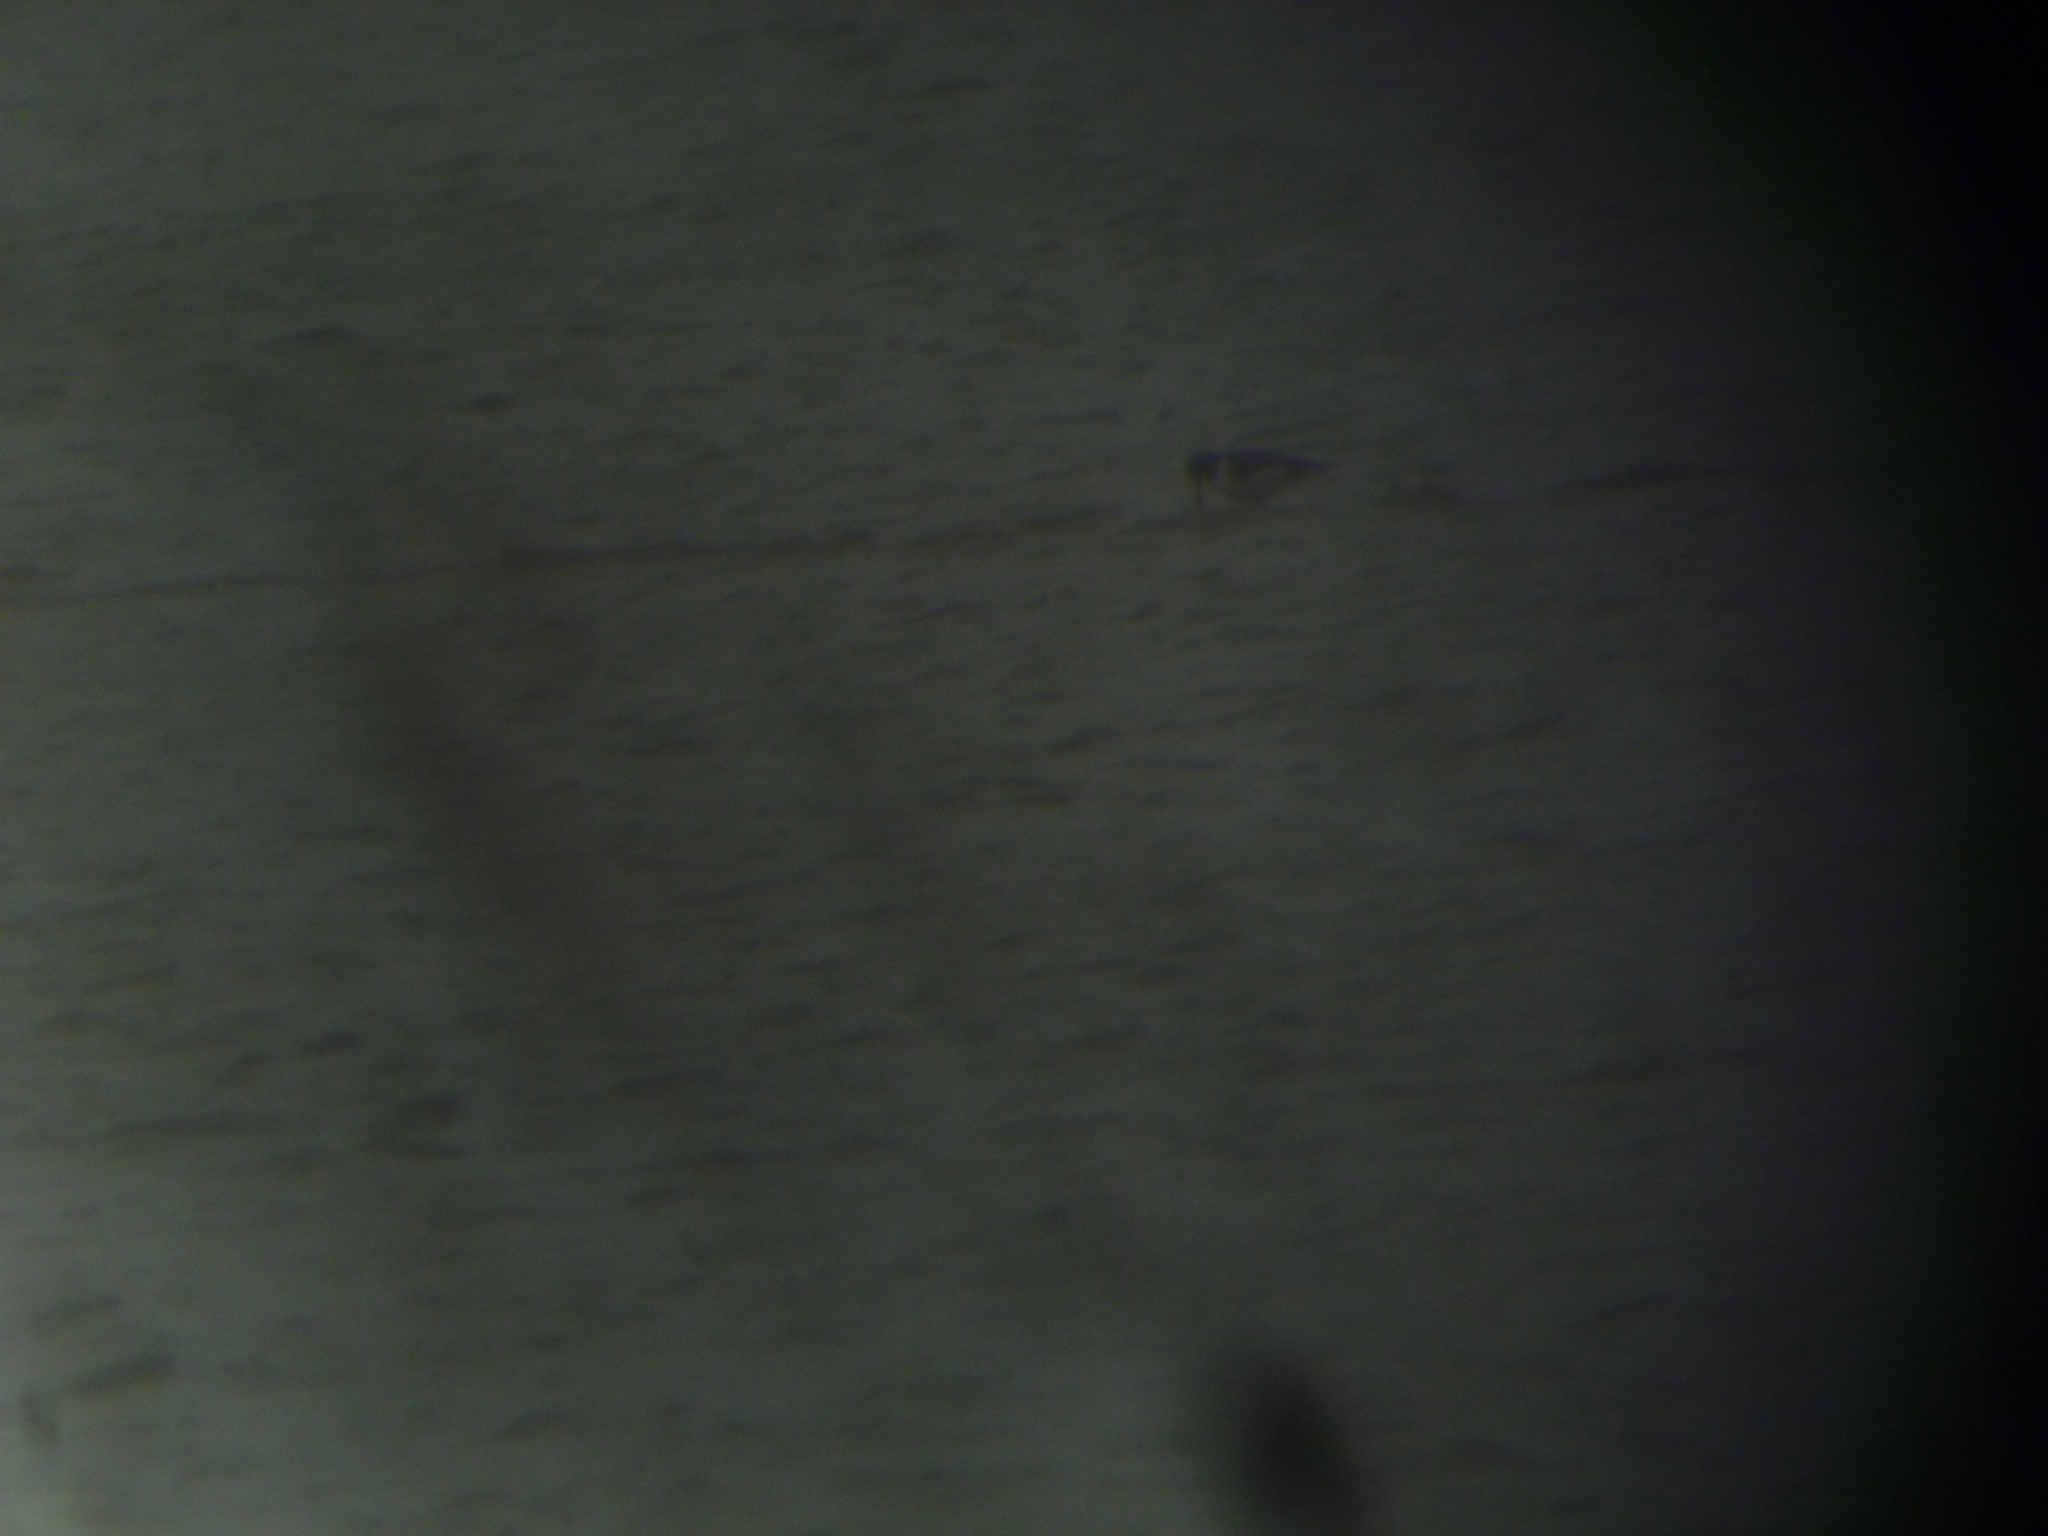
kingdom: Animalia
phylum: Chordata
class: Aves
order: Charadriiformes
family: Haematopodidae
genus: Haematopus
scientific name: Haematopus ostralegus
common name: Eurasian oystercatcher
